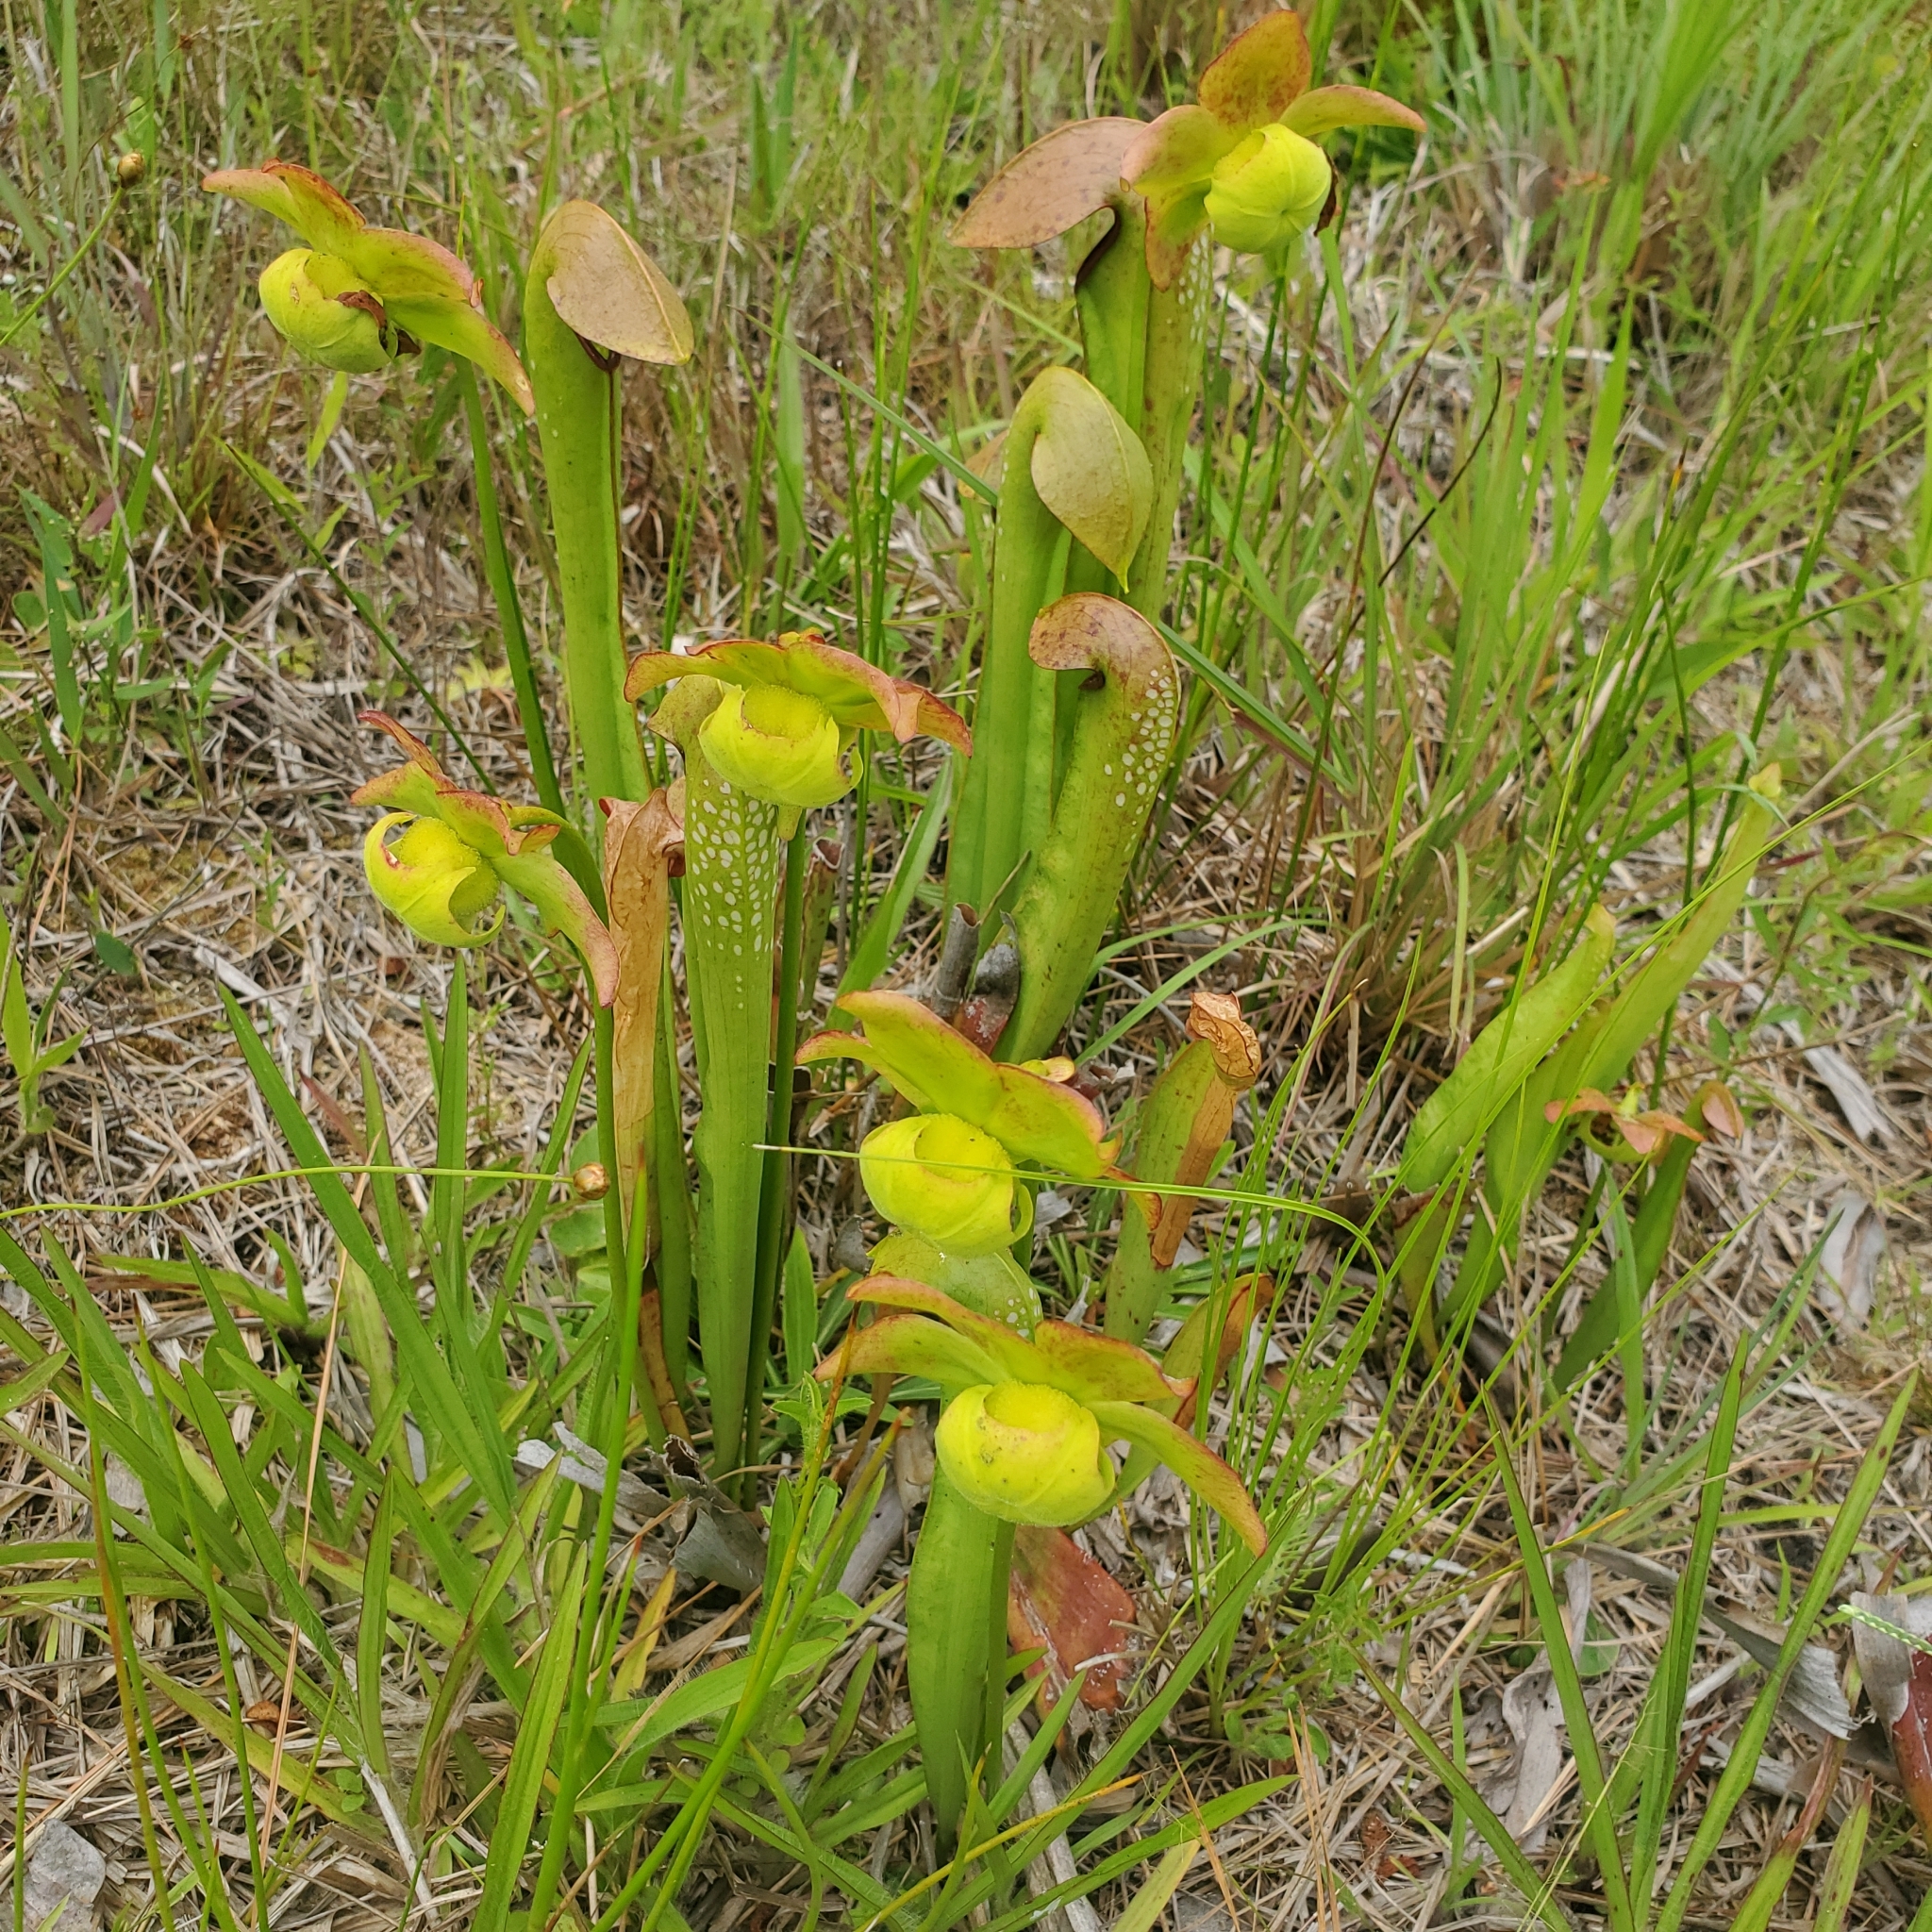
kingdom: Plantae
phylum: Tracheophyta
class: Magnoliopsida
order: Ericales
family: Sarraceniaceae
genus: Sarracenia
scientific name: Sarracenia minor
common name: Rainhat-trumpet
